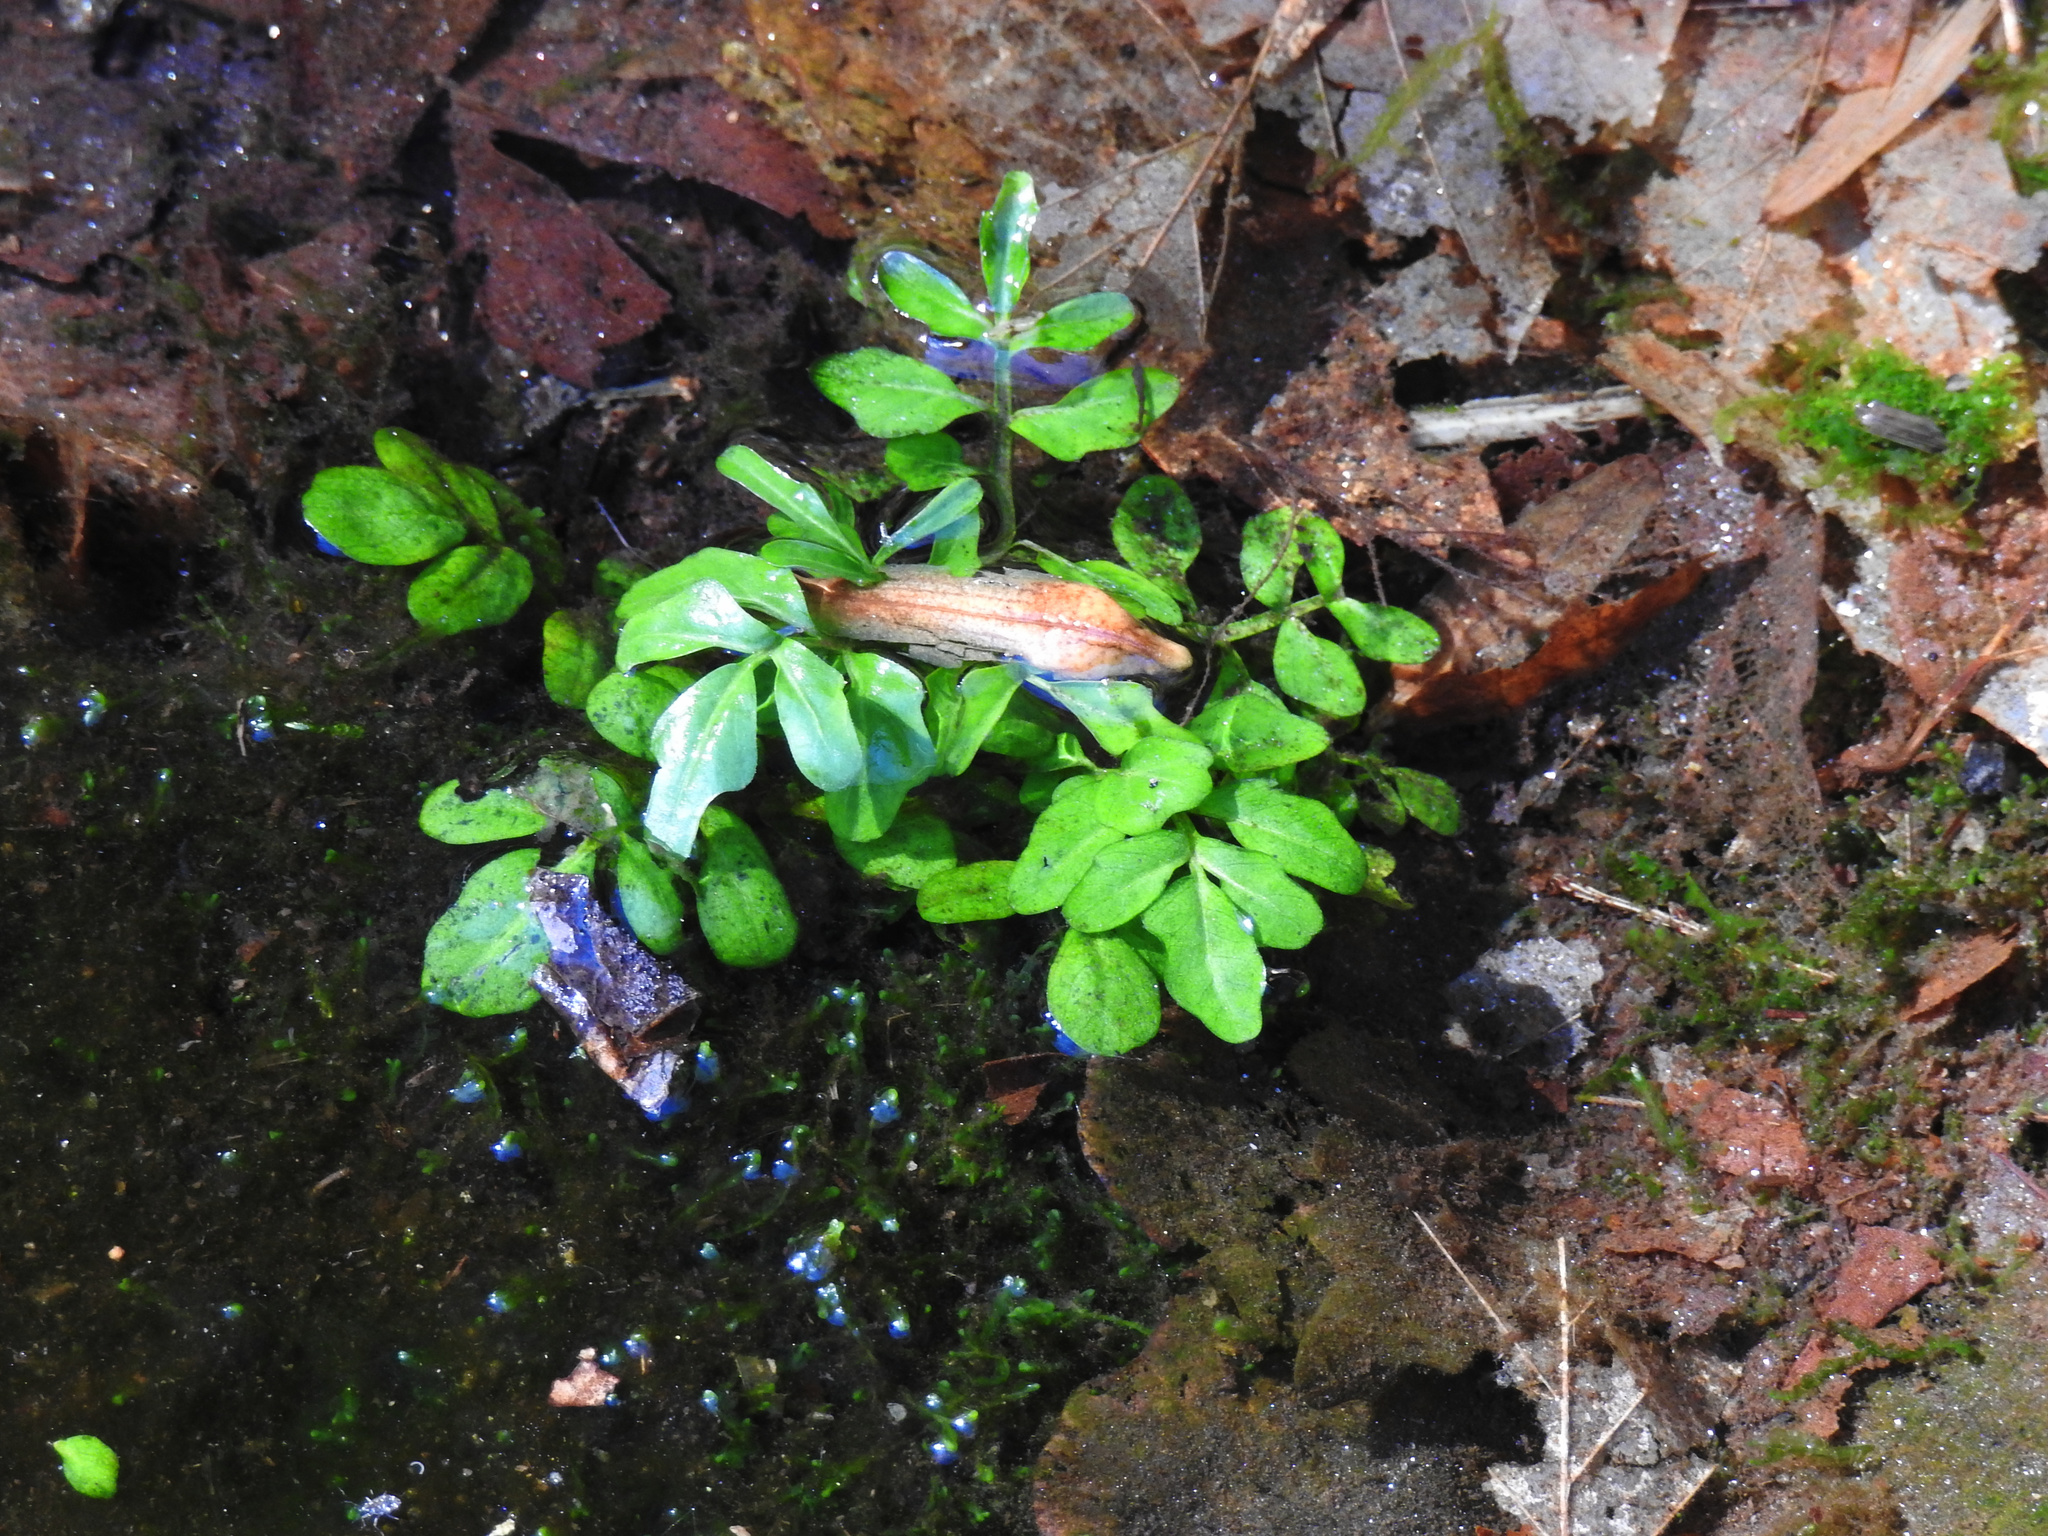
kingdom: Plantae
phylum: Tracheophyta
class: Magnoliopsida
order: Brassicales
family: Brassicaceae
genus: Nasturtium
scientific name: Nasturtium officinale
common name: Watercress
